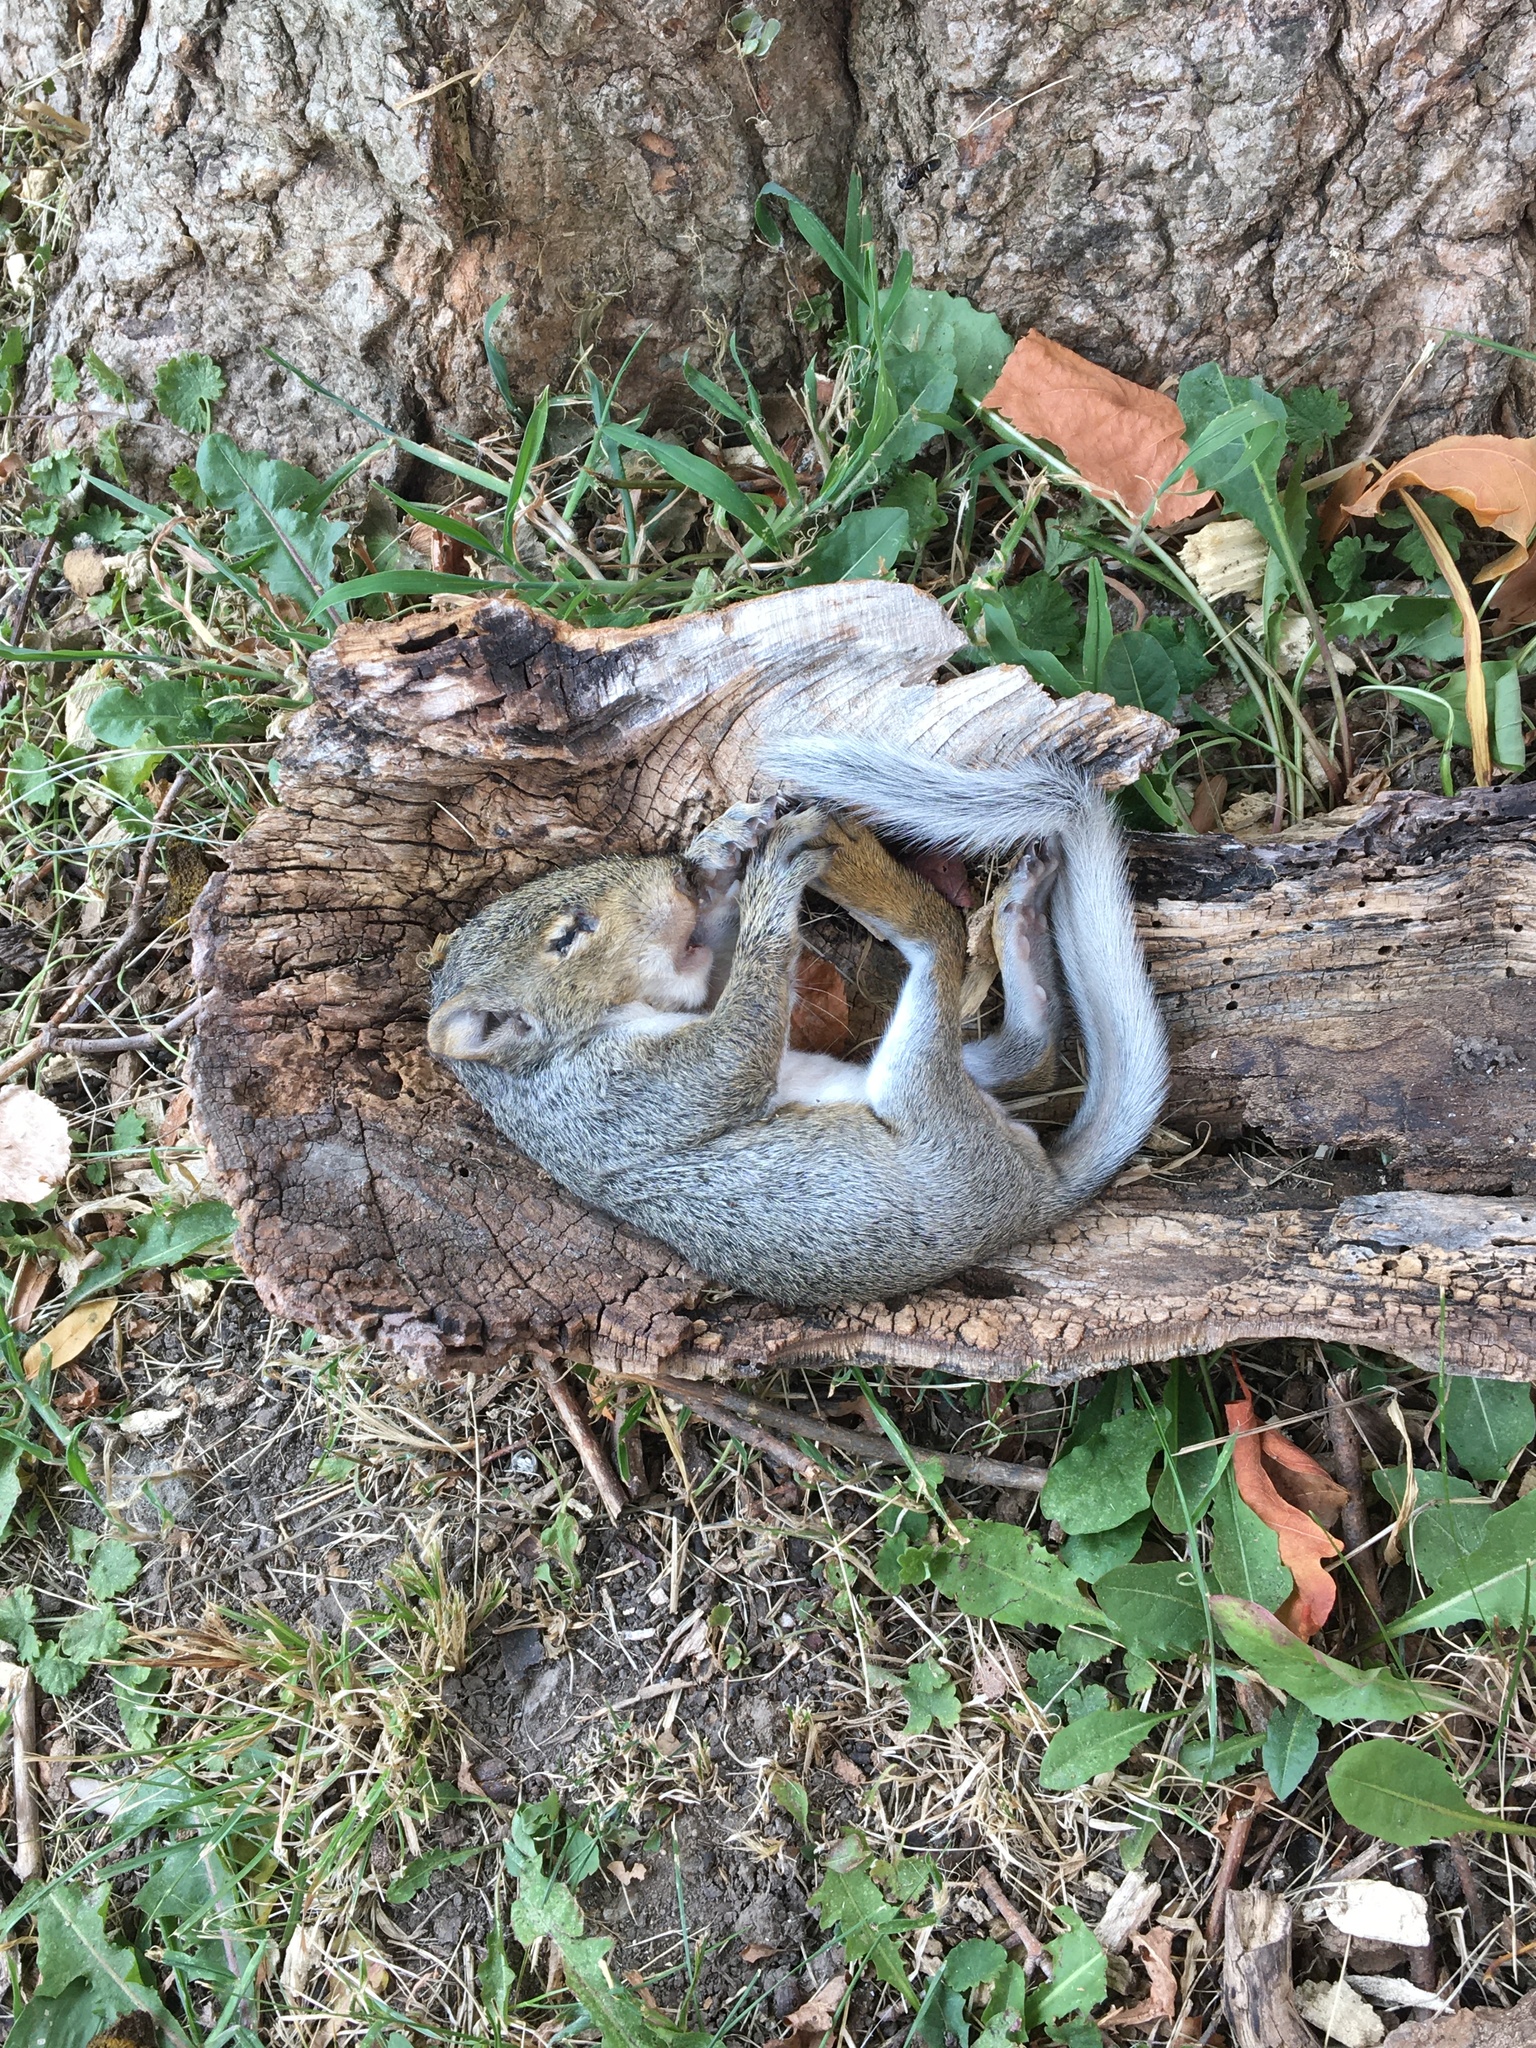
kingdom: Animalia
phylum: Chordata
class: Mammalia
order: Rodentia
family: Sciuridae
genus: Sciurus
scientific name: Sciurus carolinensis
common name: Eastern gray squirrel
